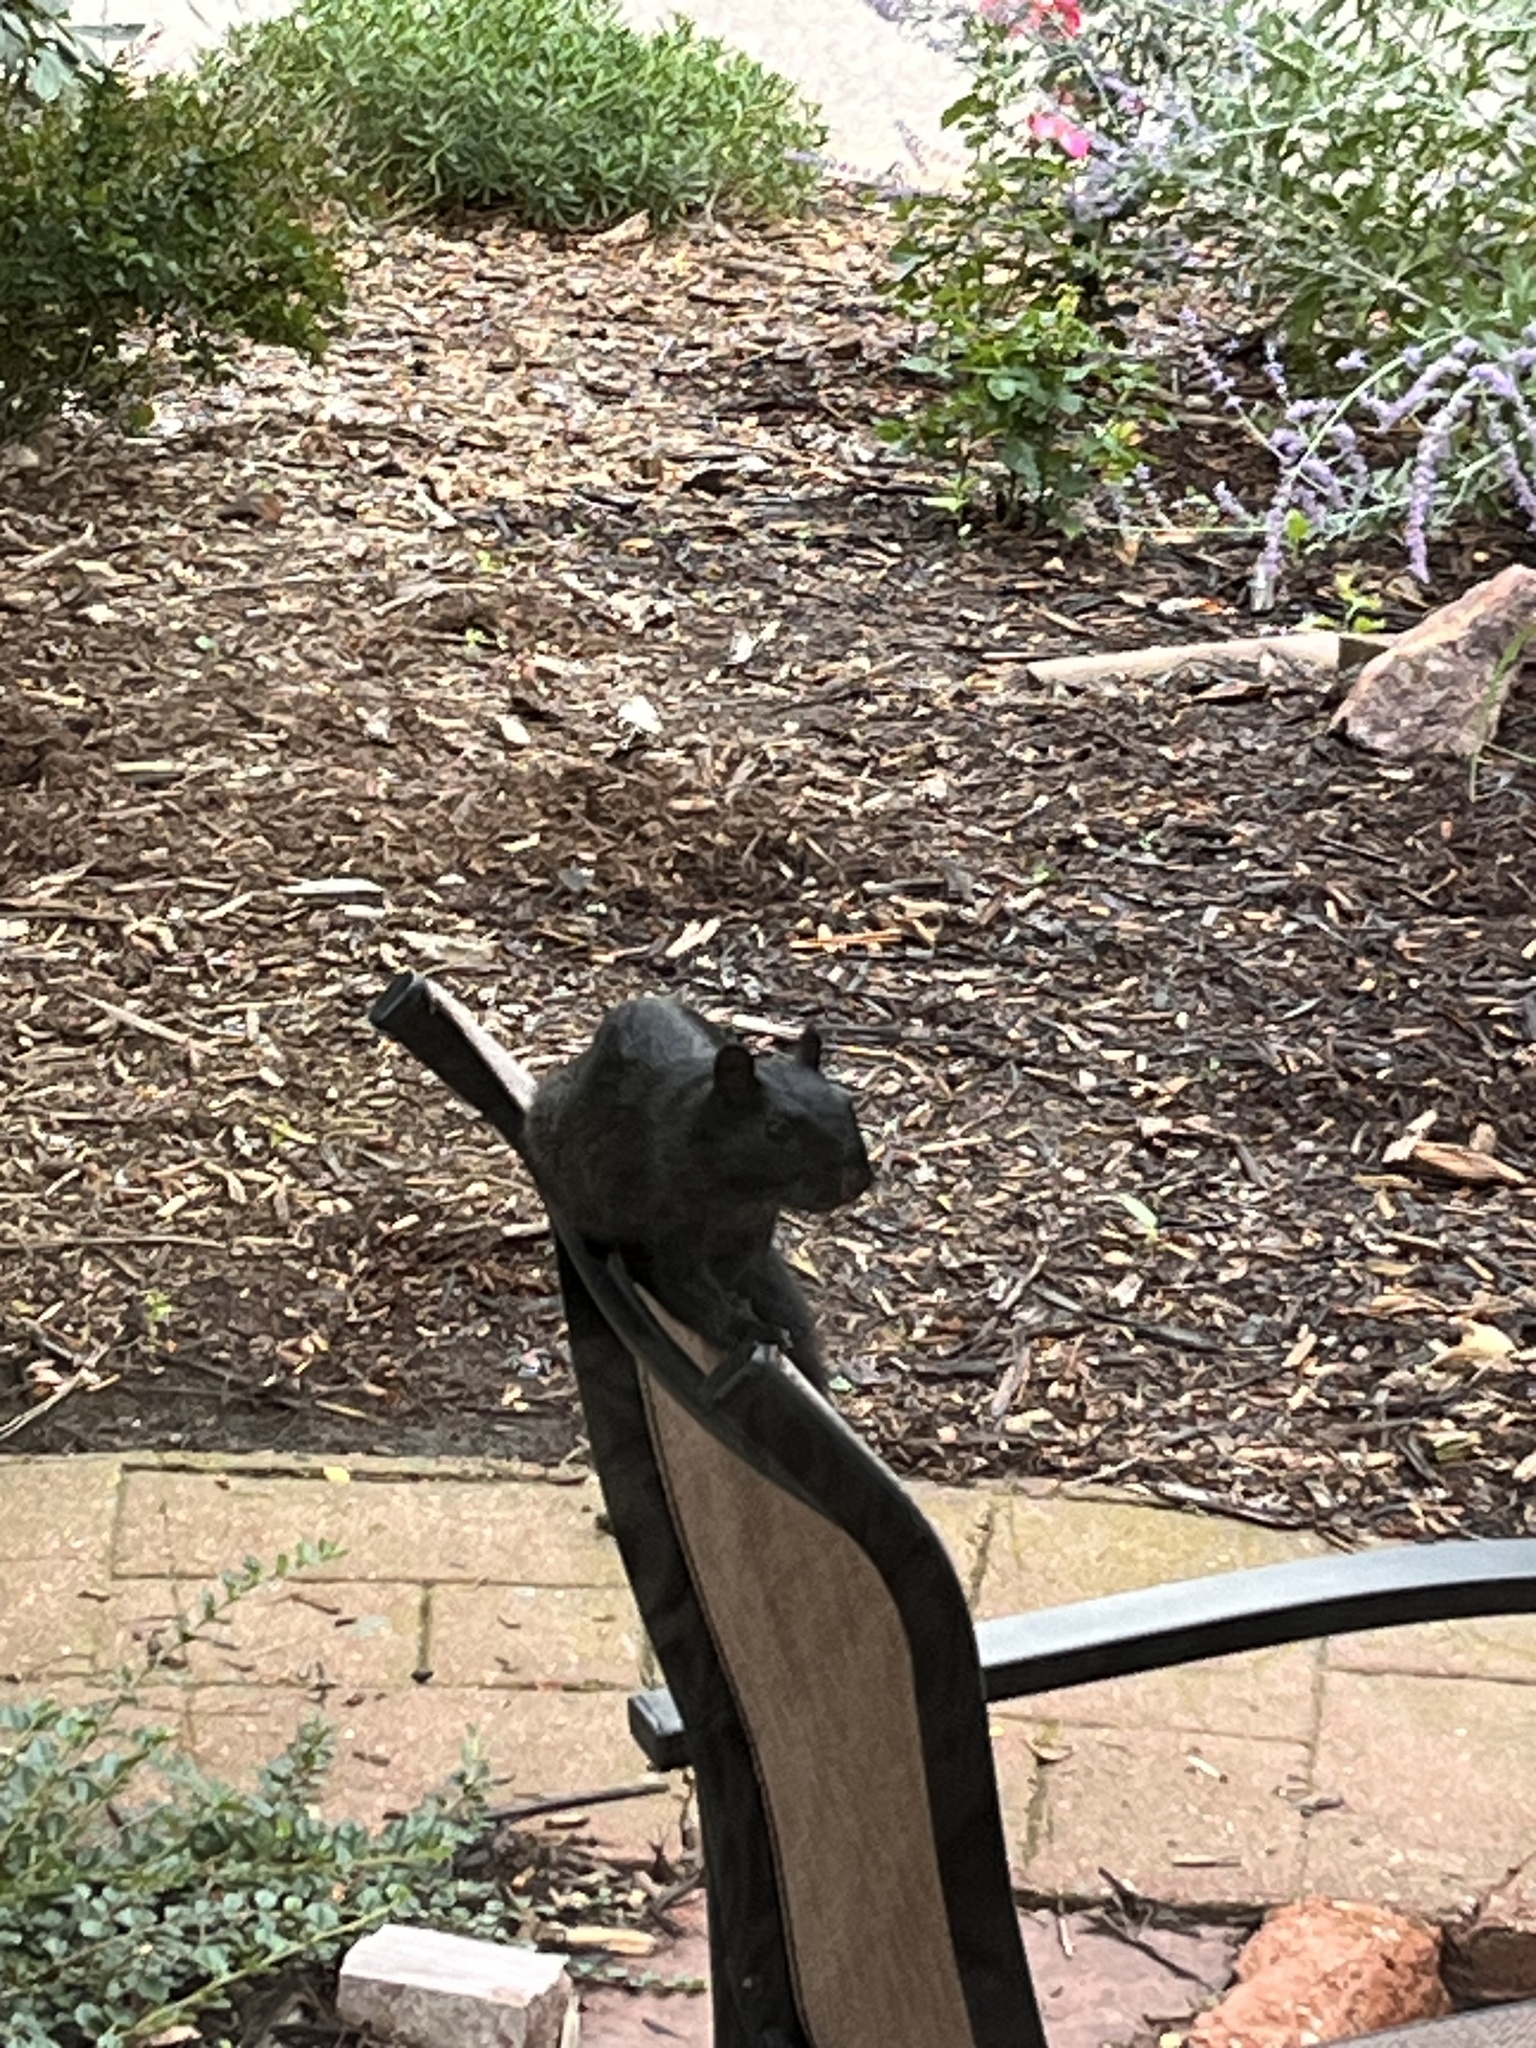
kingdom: Animalia
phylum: Chordata
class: Mammalia
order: Rodentia
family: Sciuridae
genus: Sciurus
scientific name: Sciurus niger
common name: Fox squirrel
